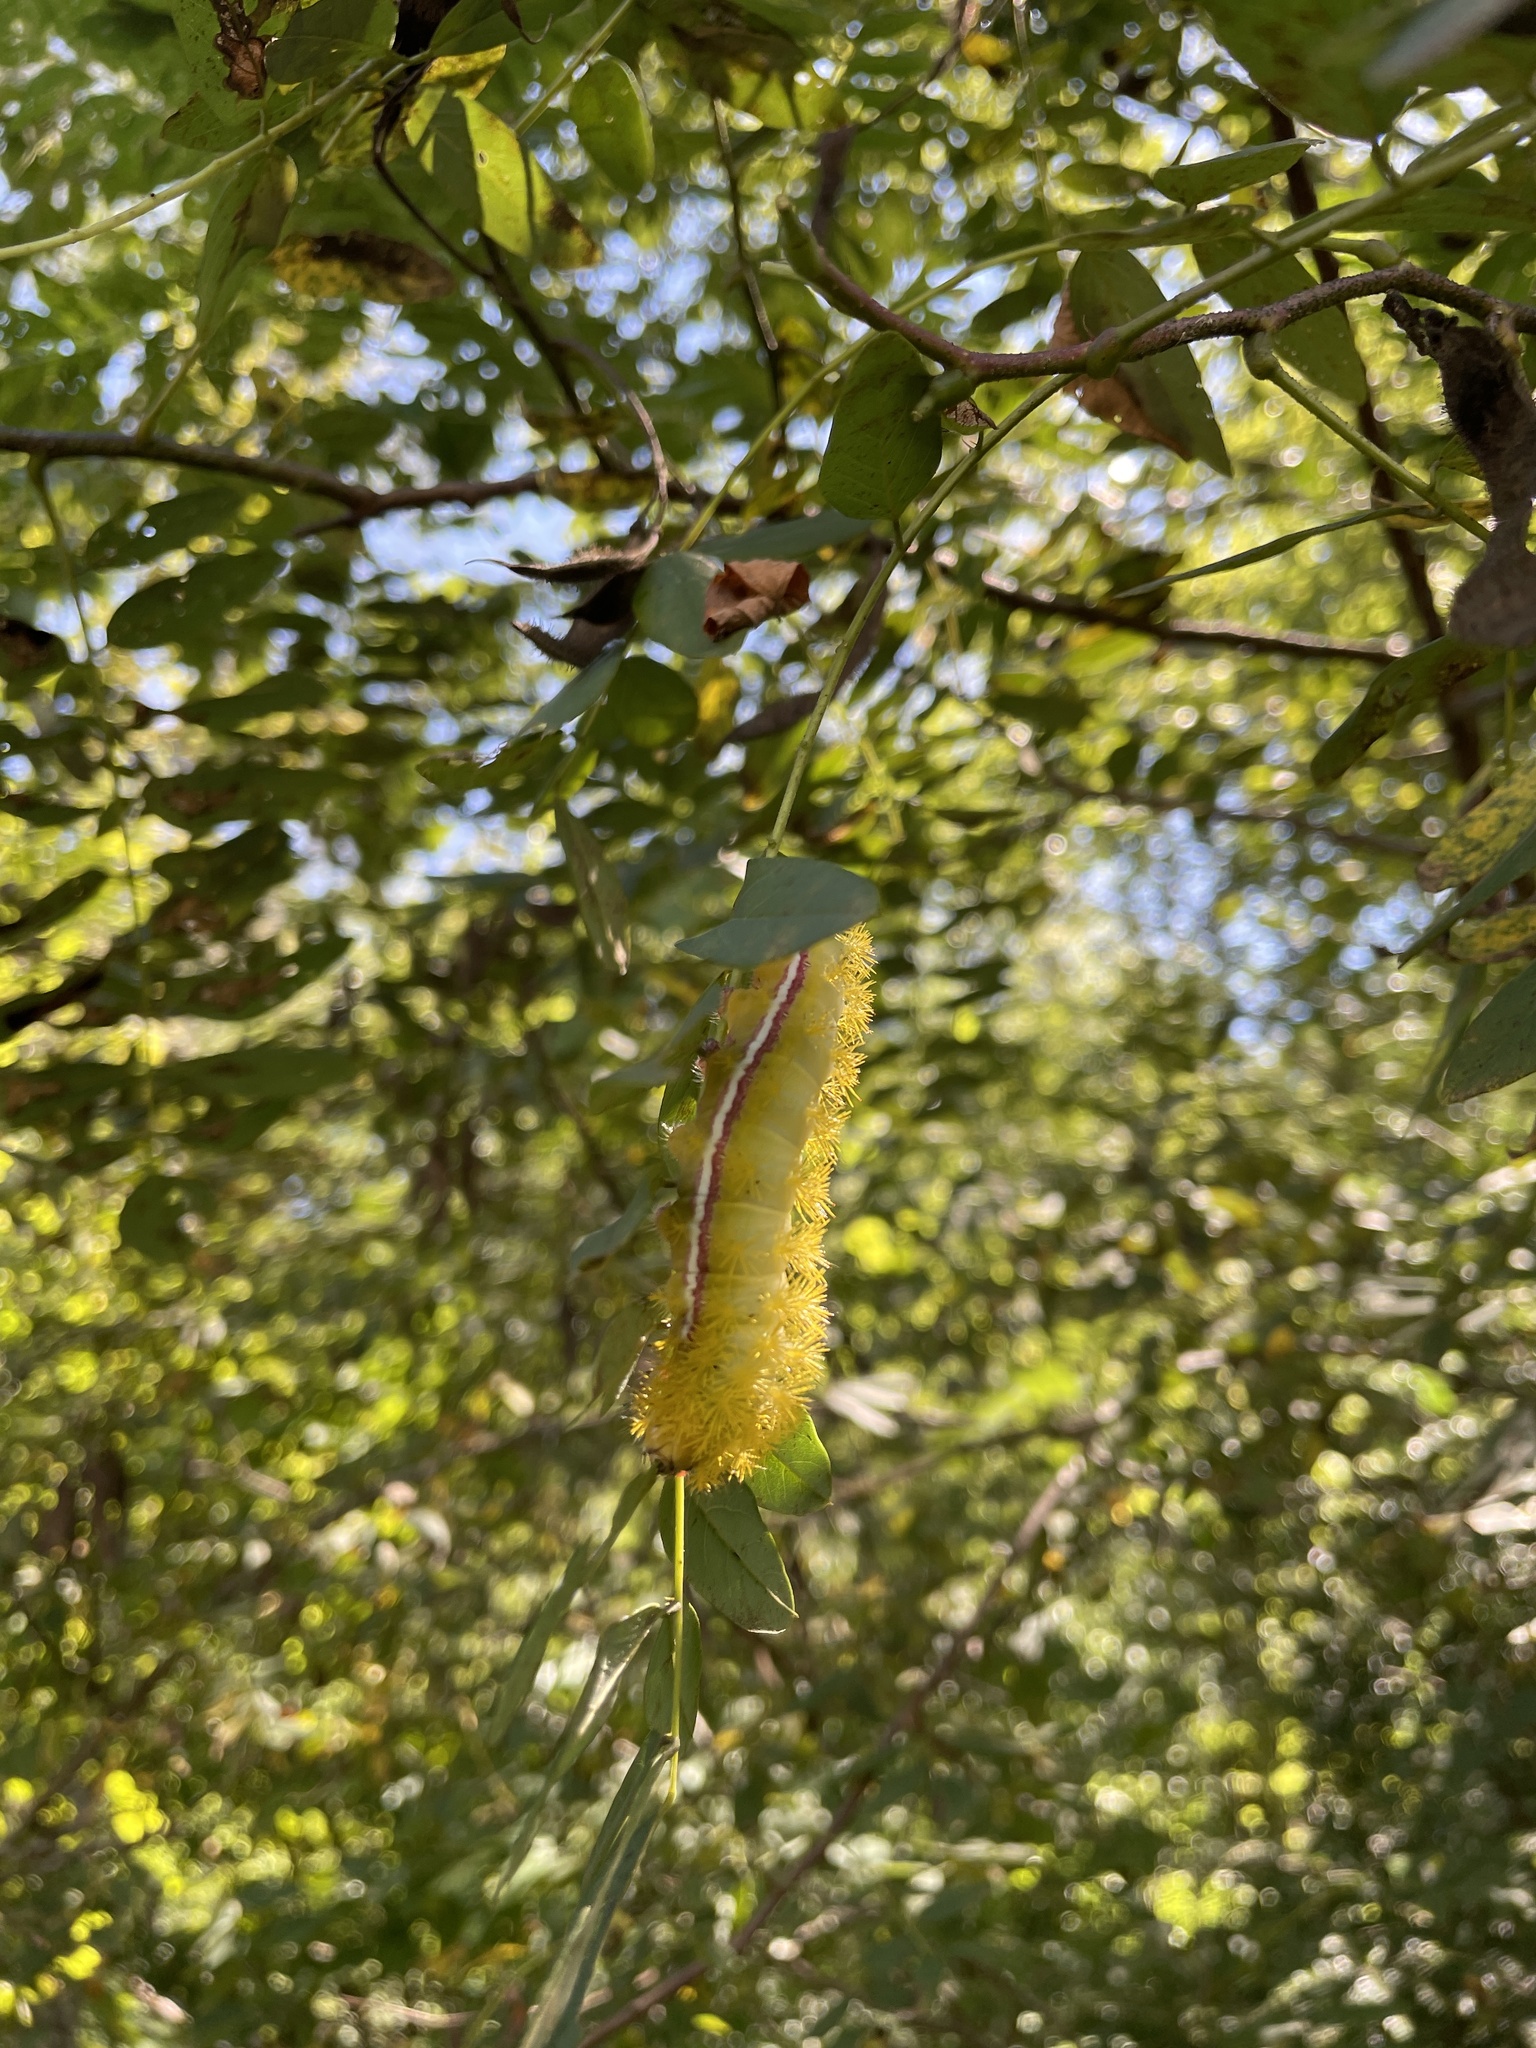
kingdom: Animalia
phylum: Arthropoda
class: Insecta
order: Lepidoptera
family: Saturniidae
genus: Automeris
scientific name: Automeris io
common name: Io moth
